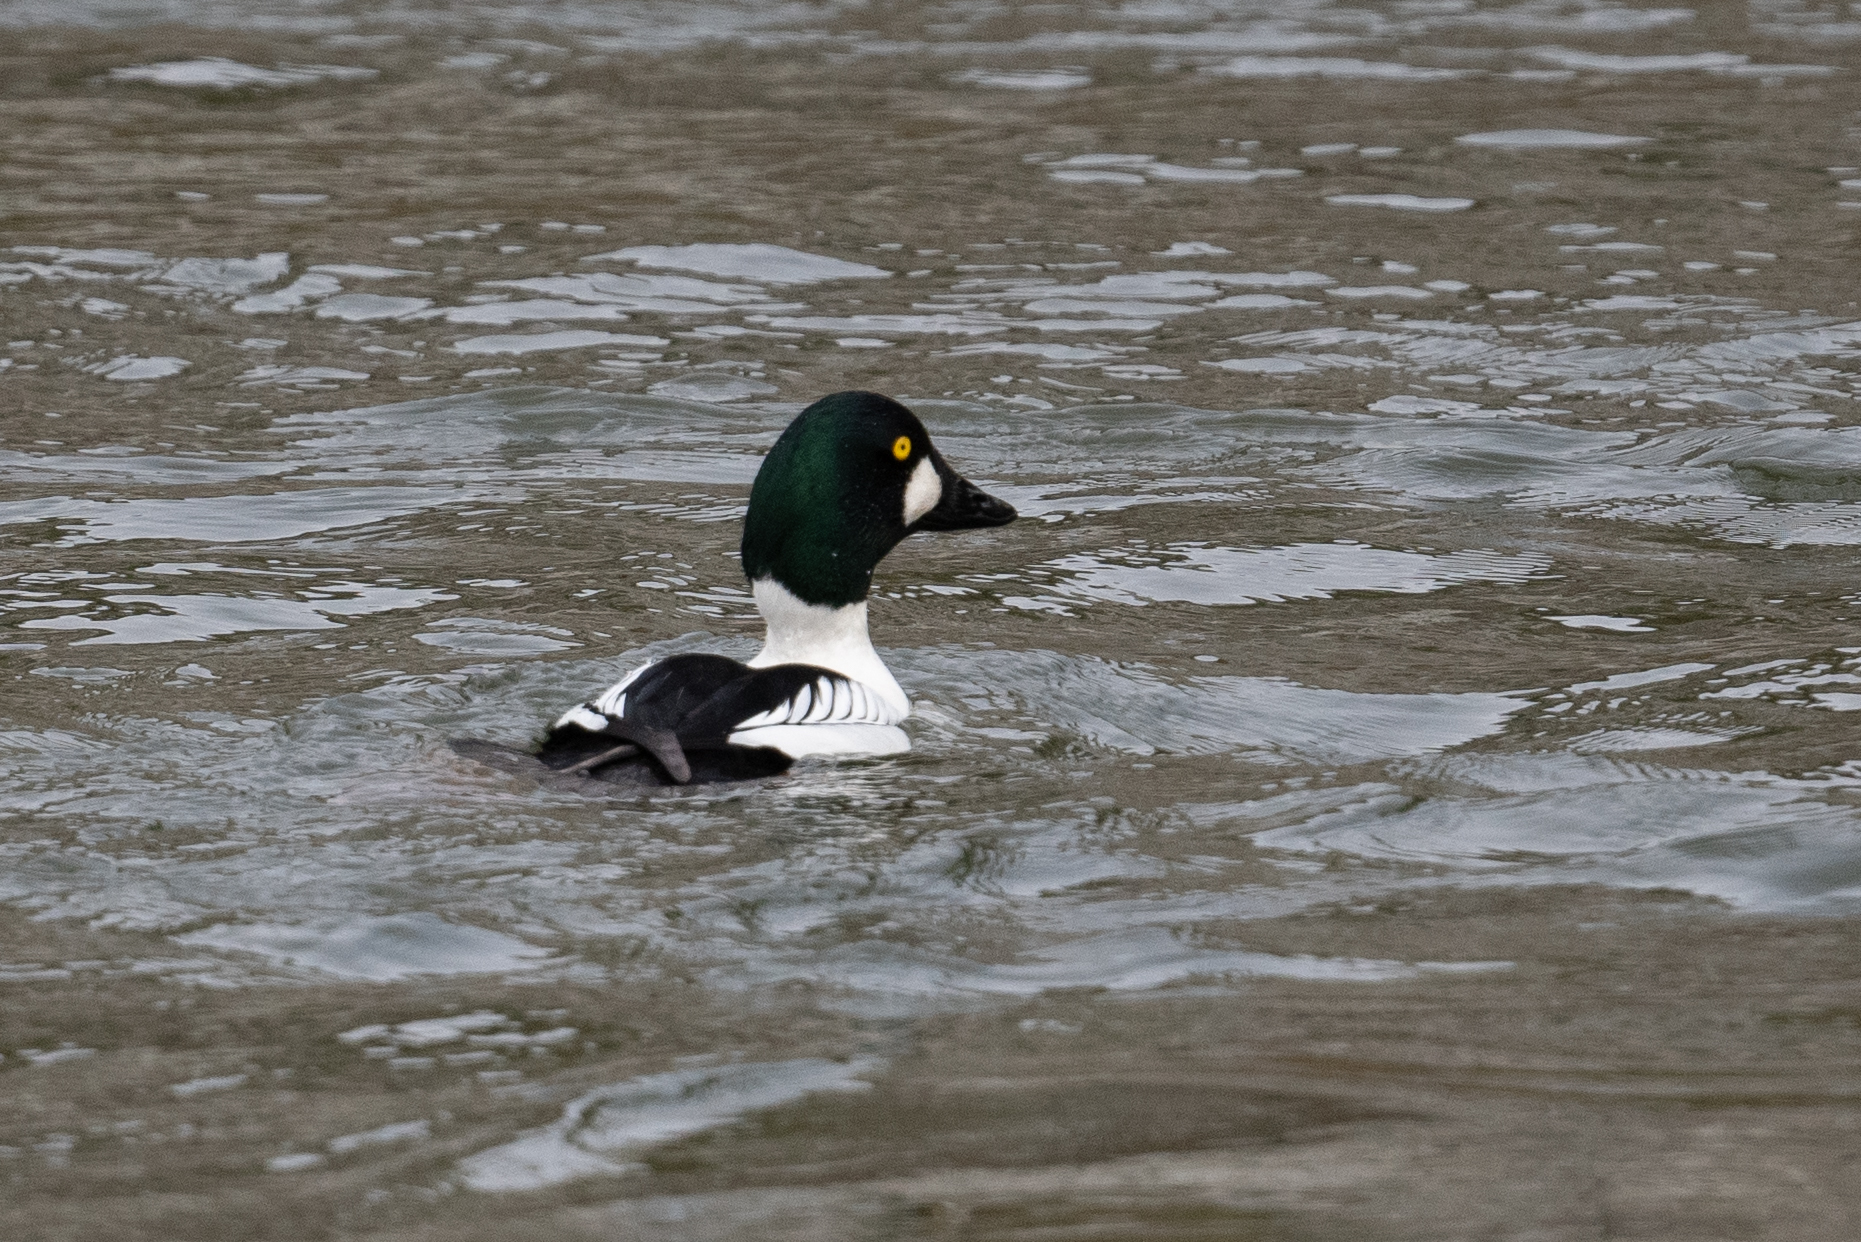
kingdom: Animalia
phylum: Chordata
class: Aves
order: Anseriformes
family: Anatidae
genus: Bucephala
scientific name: Bucephala clangula
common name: Common goldeneye
